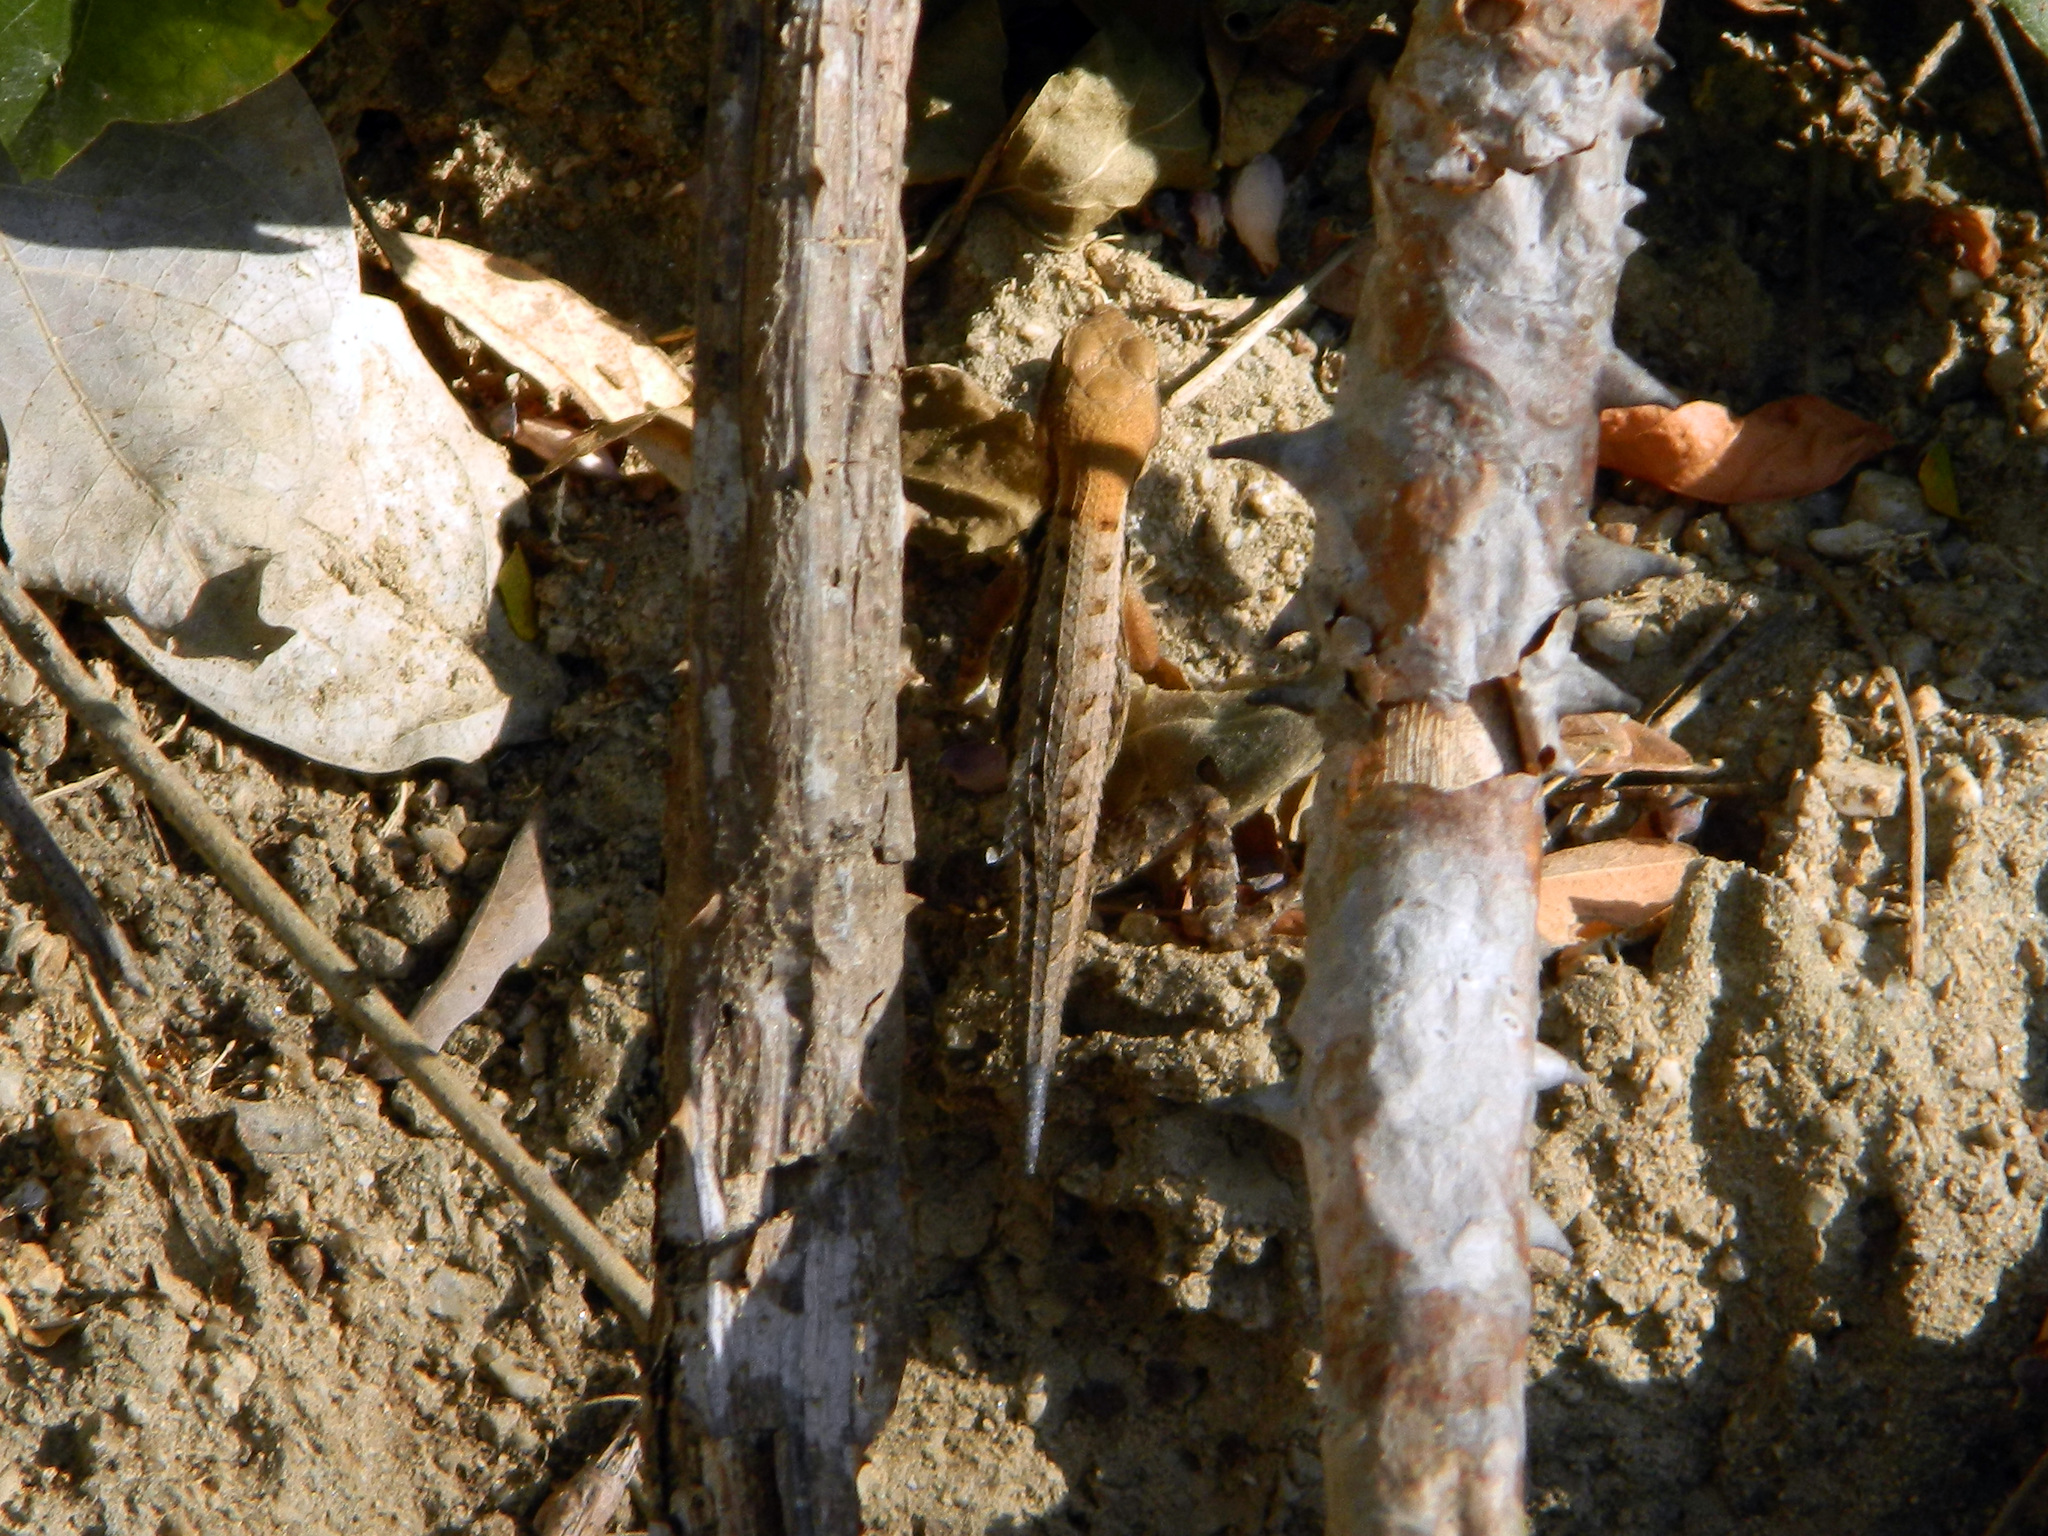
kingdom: Animalia
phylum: Chordata
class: Squamata
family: Phrynosomatidae
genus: Sceloporus
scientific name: Sceloporus siniferus
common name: Longtail spiny lizard
